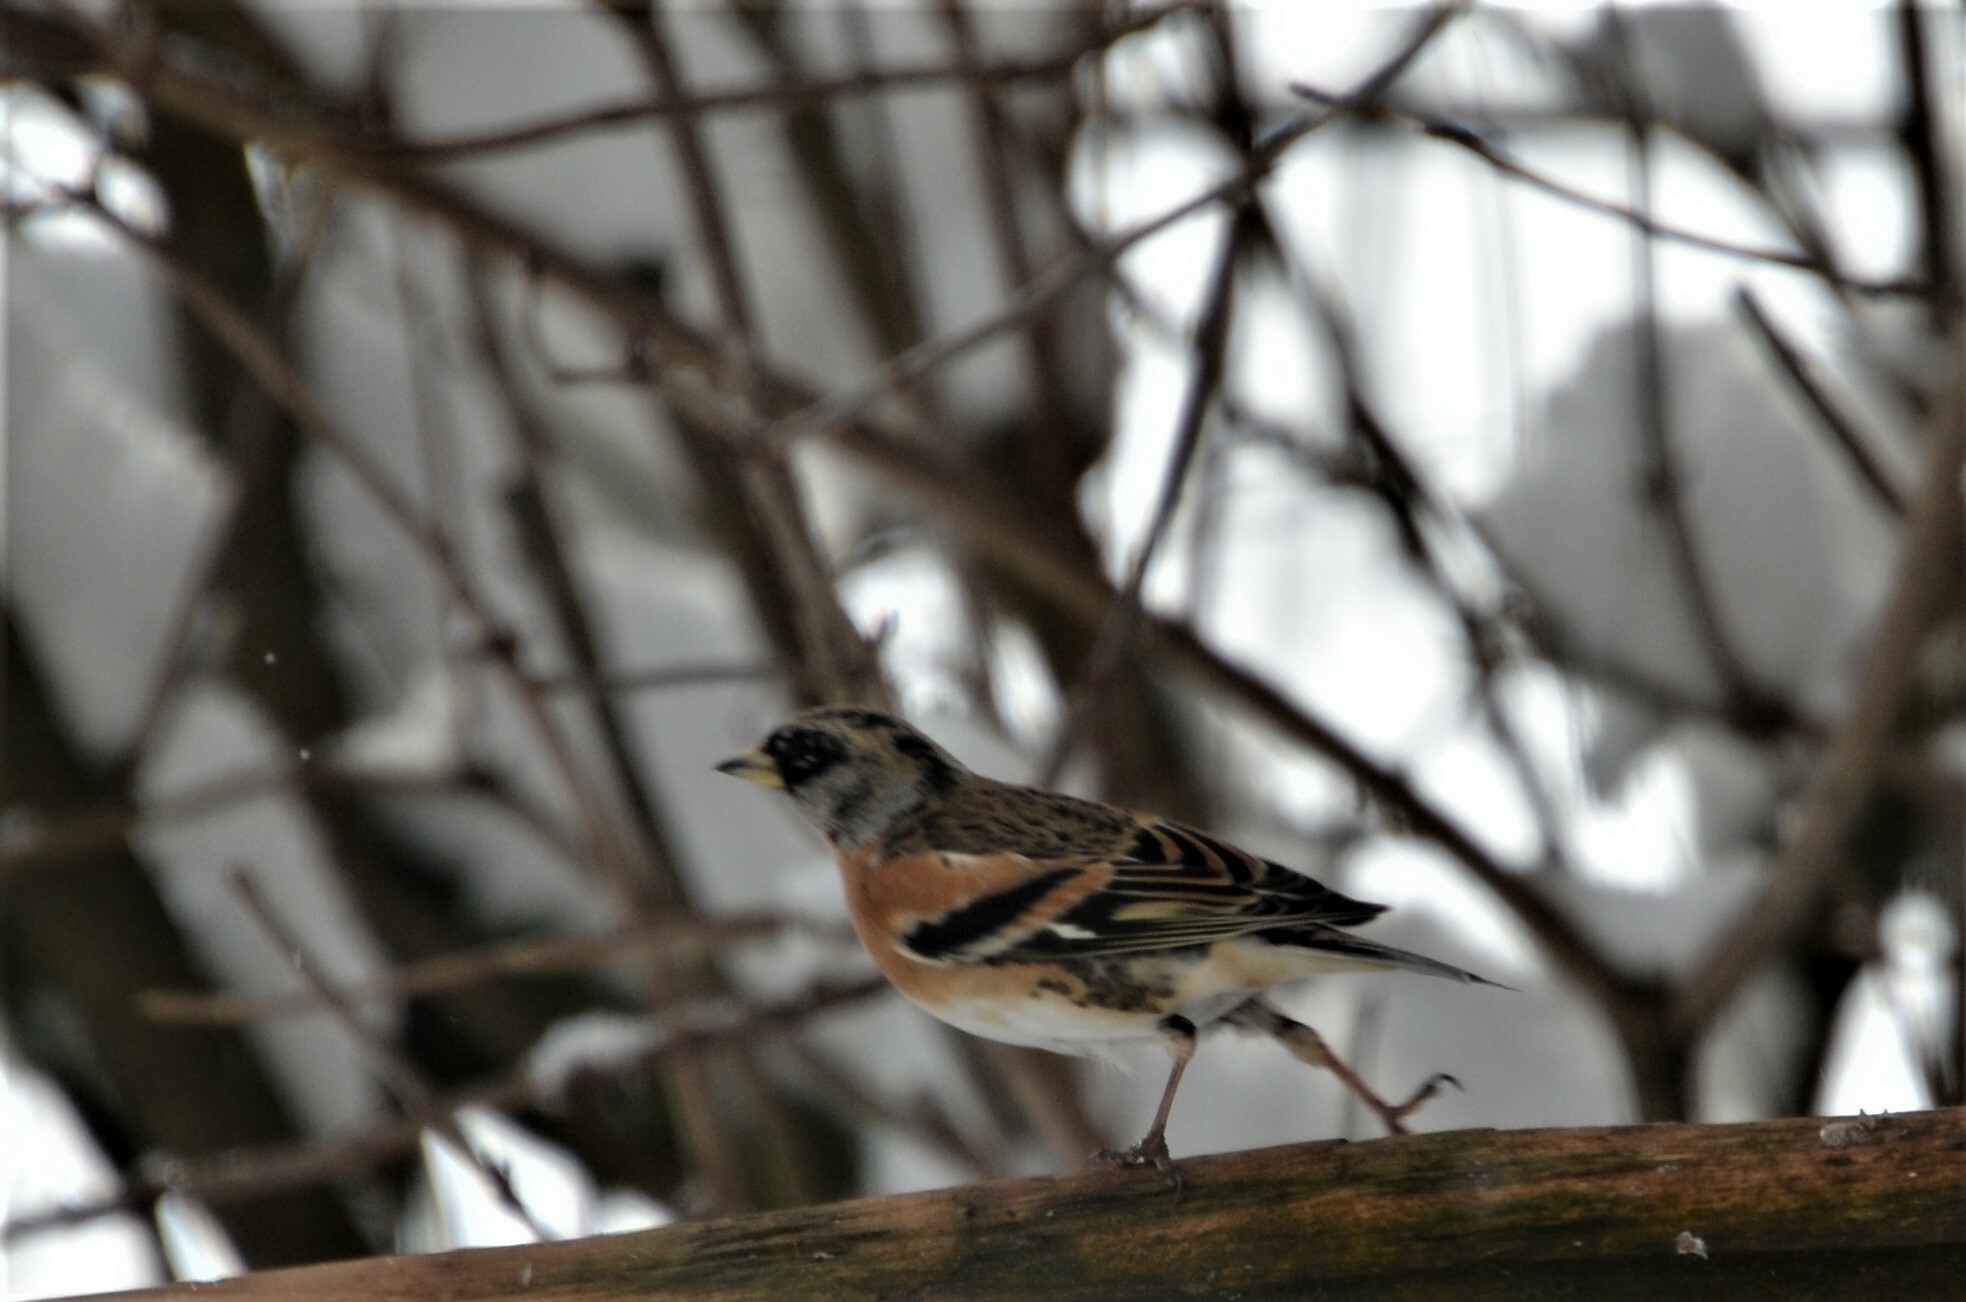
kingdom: Animalia
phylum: Chordata
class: Aves
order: Passeriformes
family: Fringillidae
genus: Fringilla
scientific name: Fringilla montifringilla
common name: Brambling
